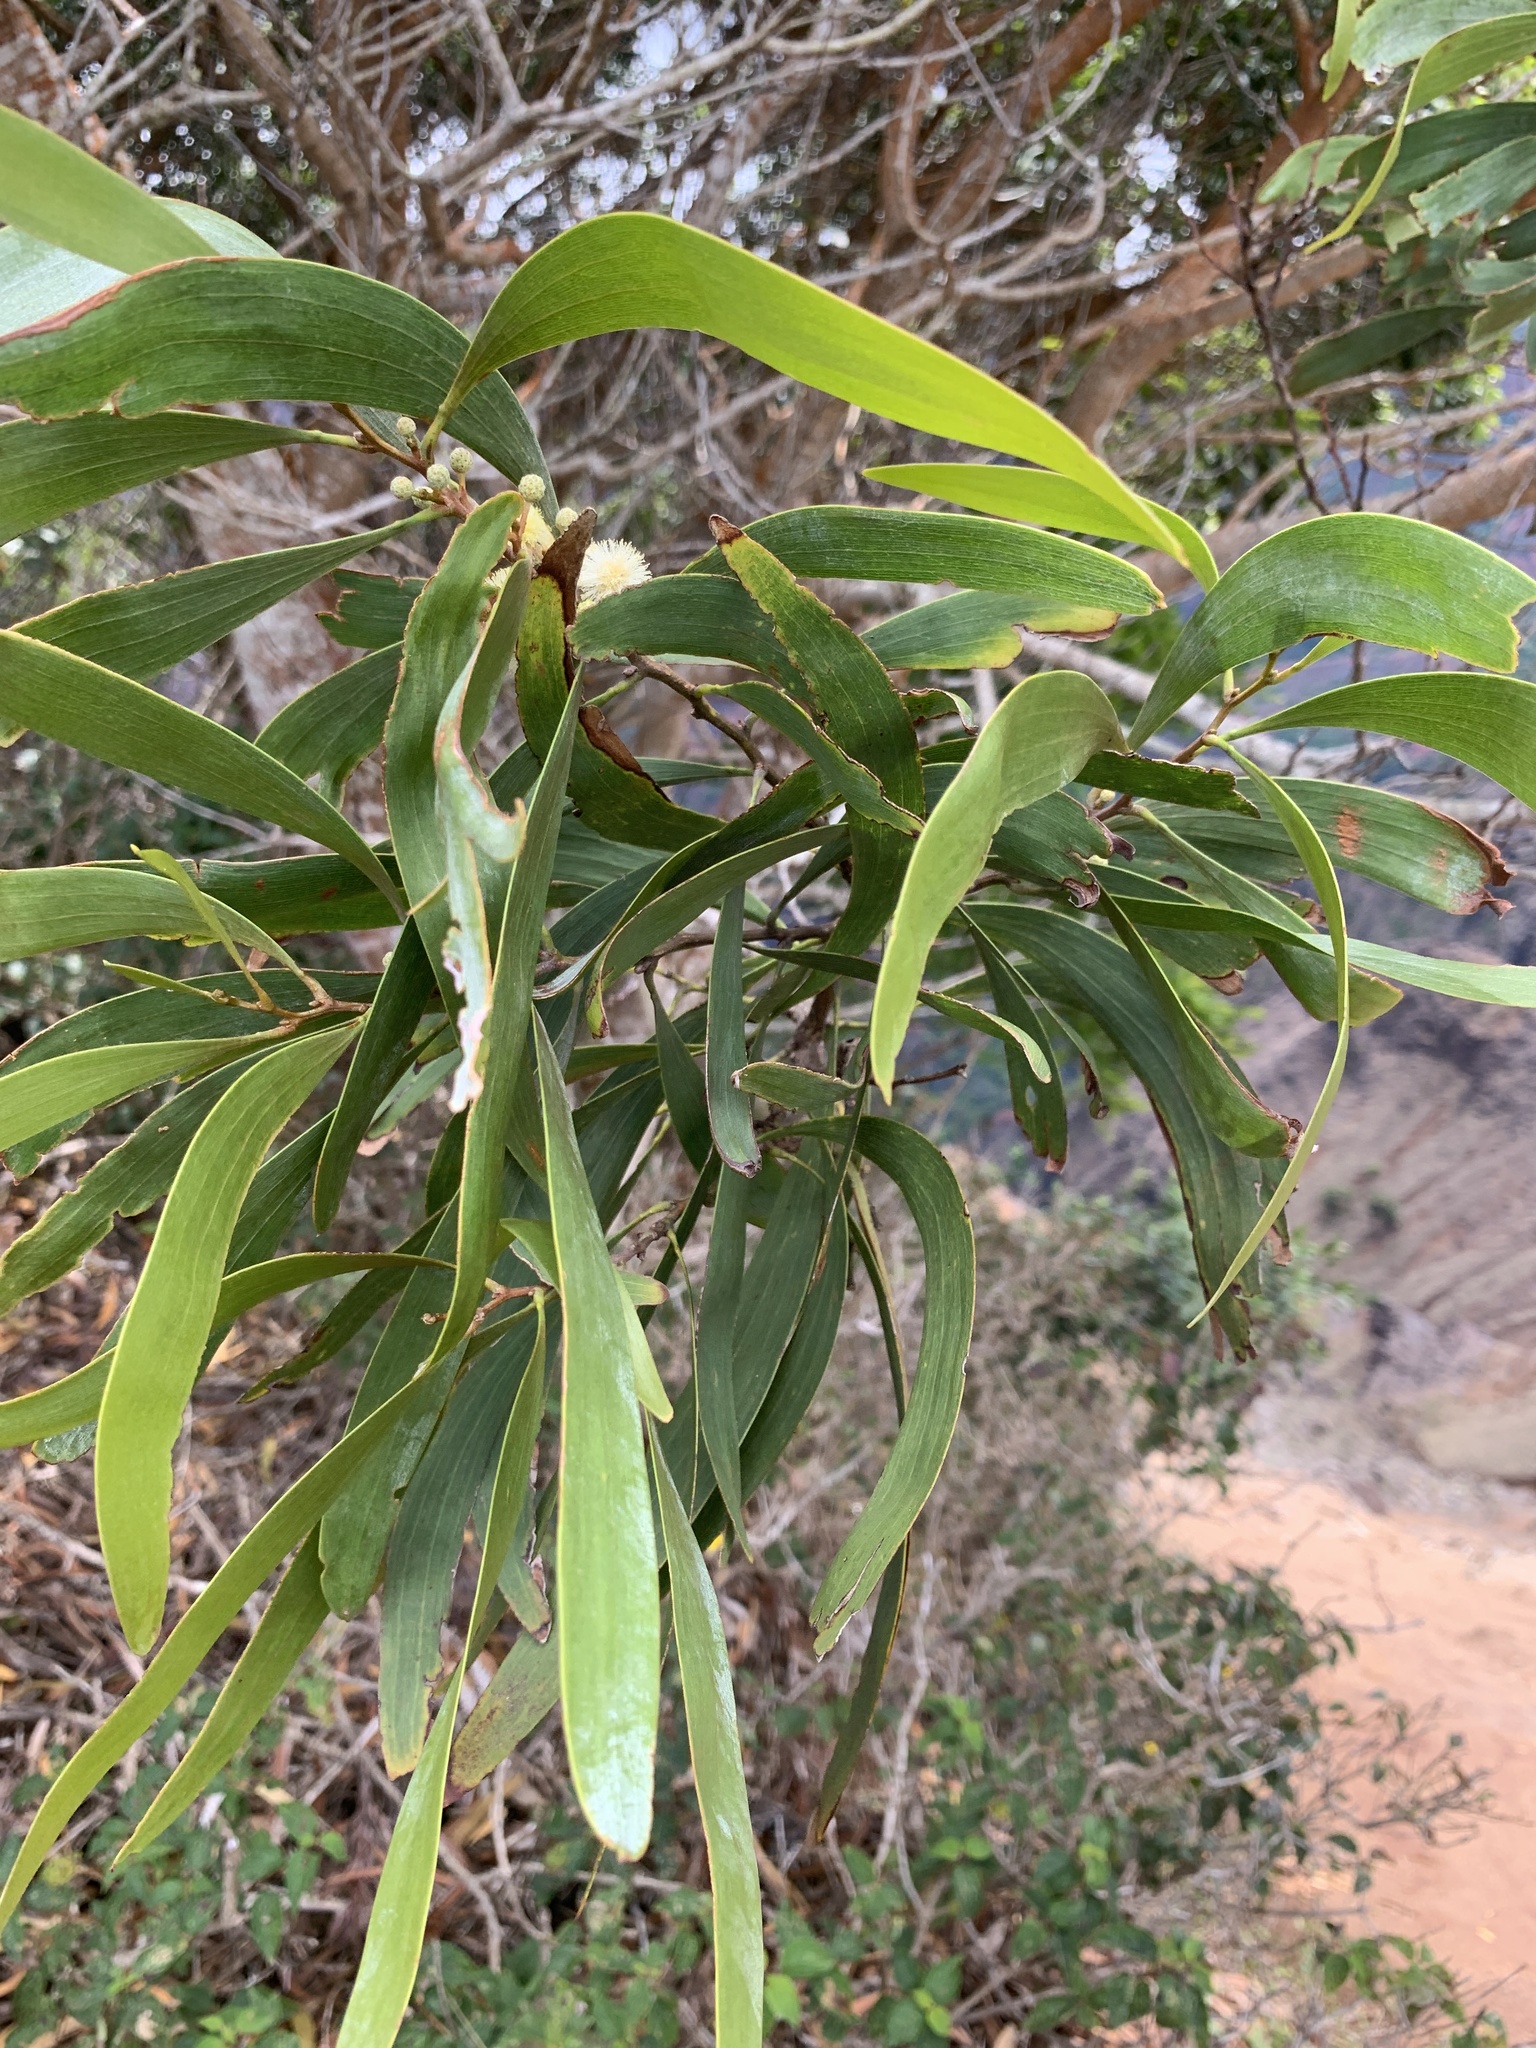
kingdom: Plantae
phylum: Tracheophyta
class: Magnoliopsida
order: Fabales
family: Fabaceae
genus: Acacia
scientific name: Acacia koa
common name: Gray koa
